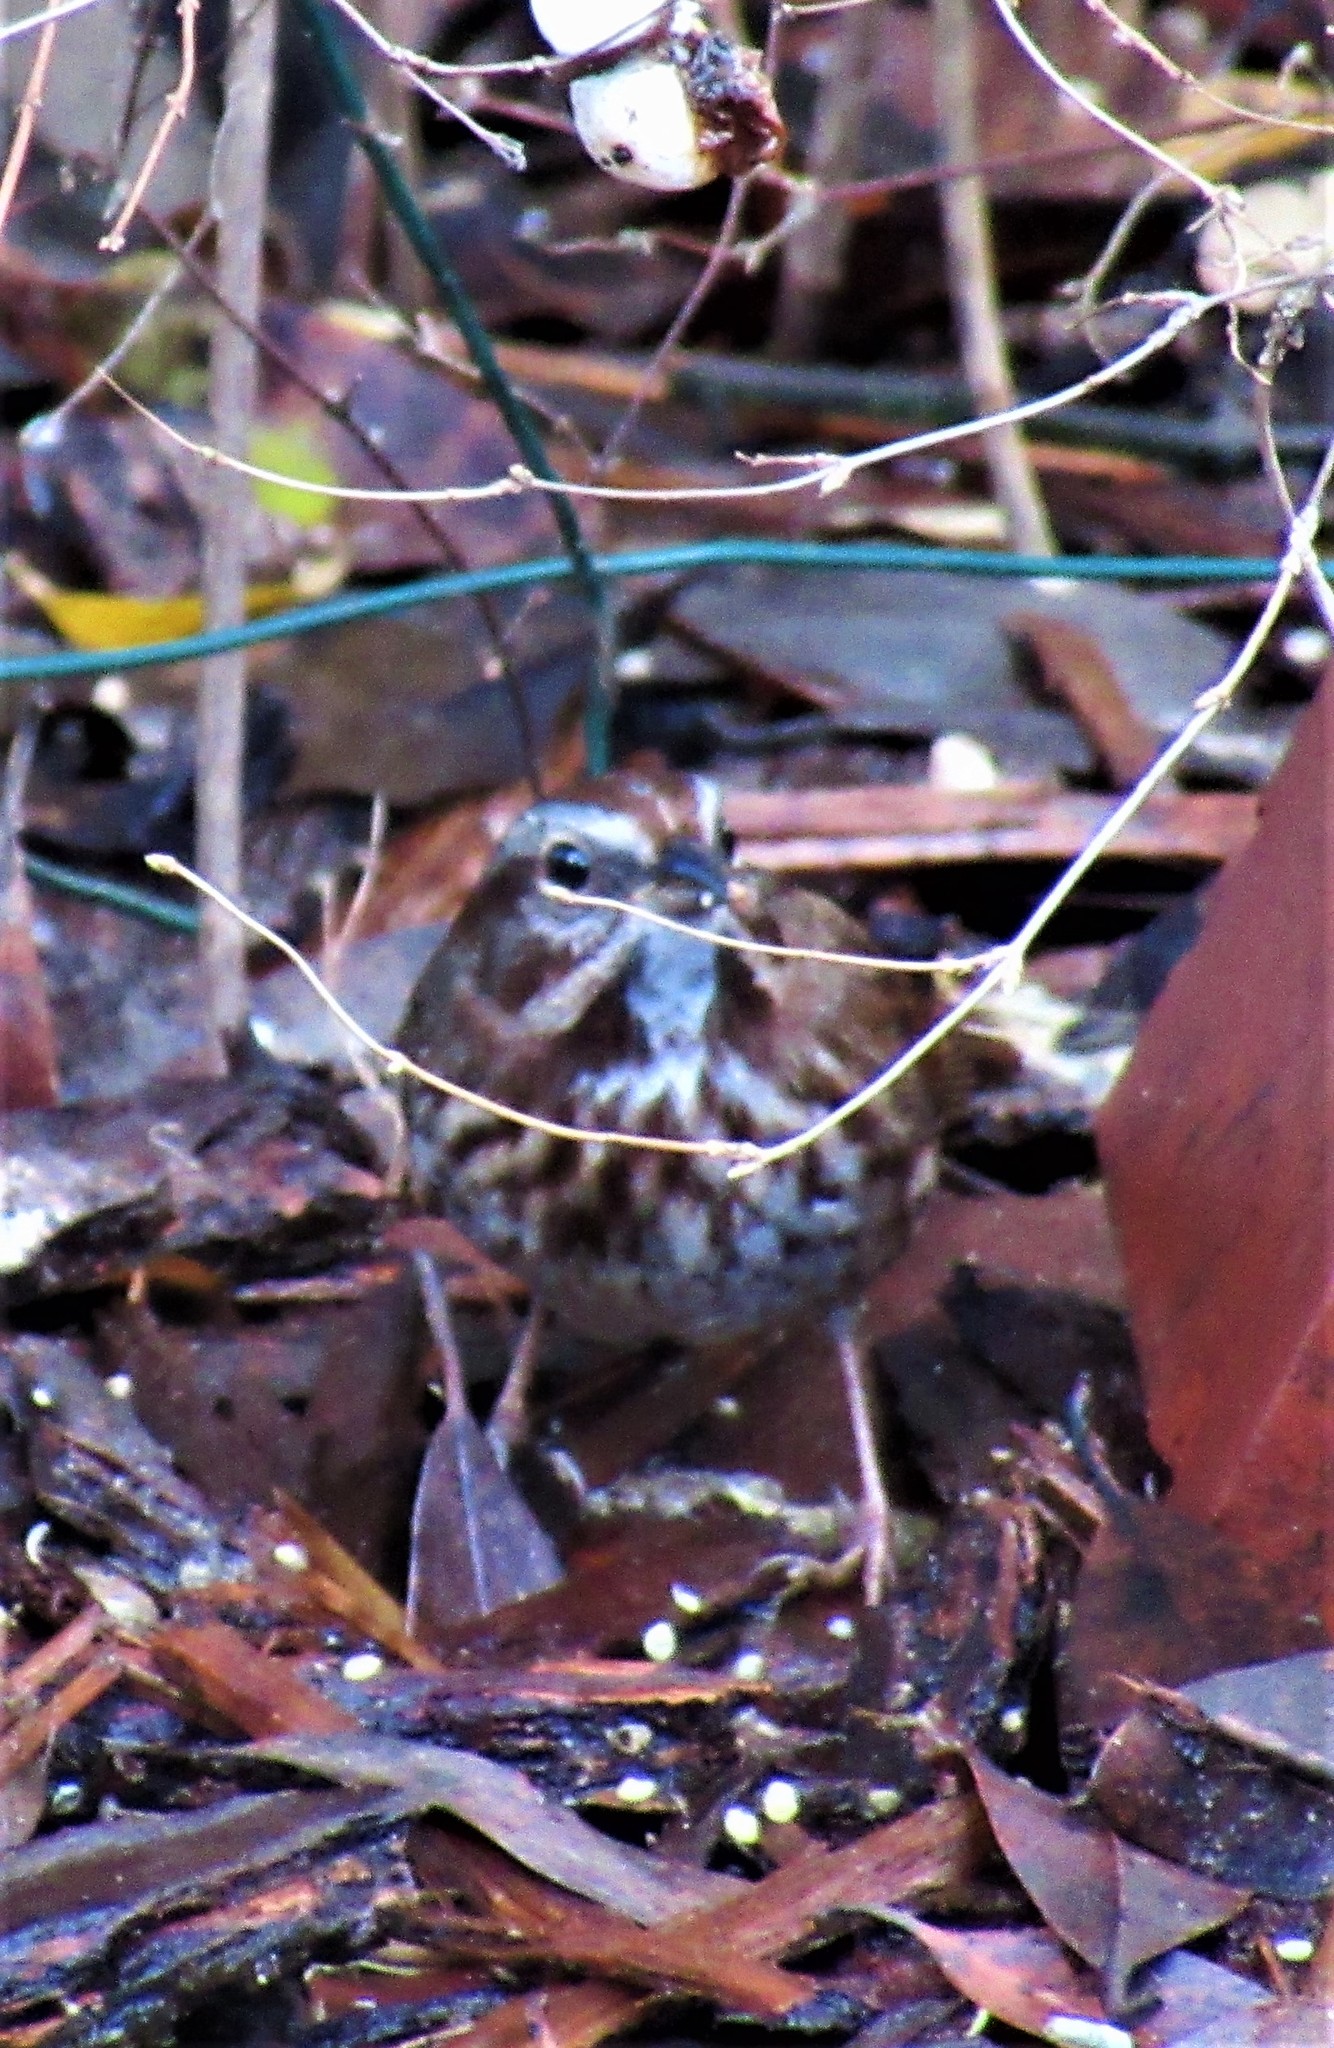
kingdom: Animalia
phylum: Chordata
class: Aves
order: Passeriformes
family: Passerellidae
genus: Melospiza
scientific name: Melospiza melodia
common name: Song sparrow
